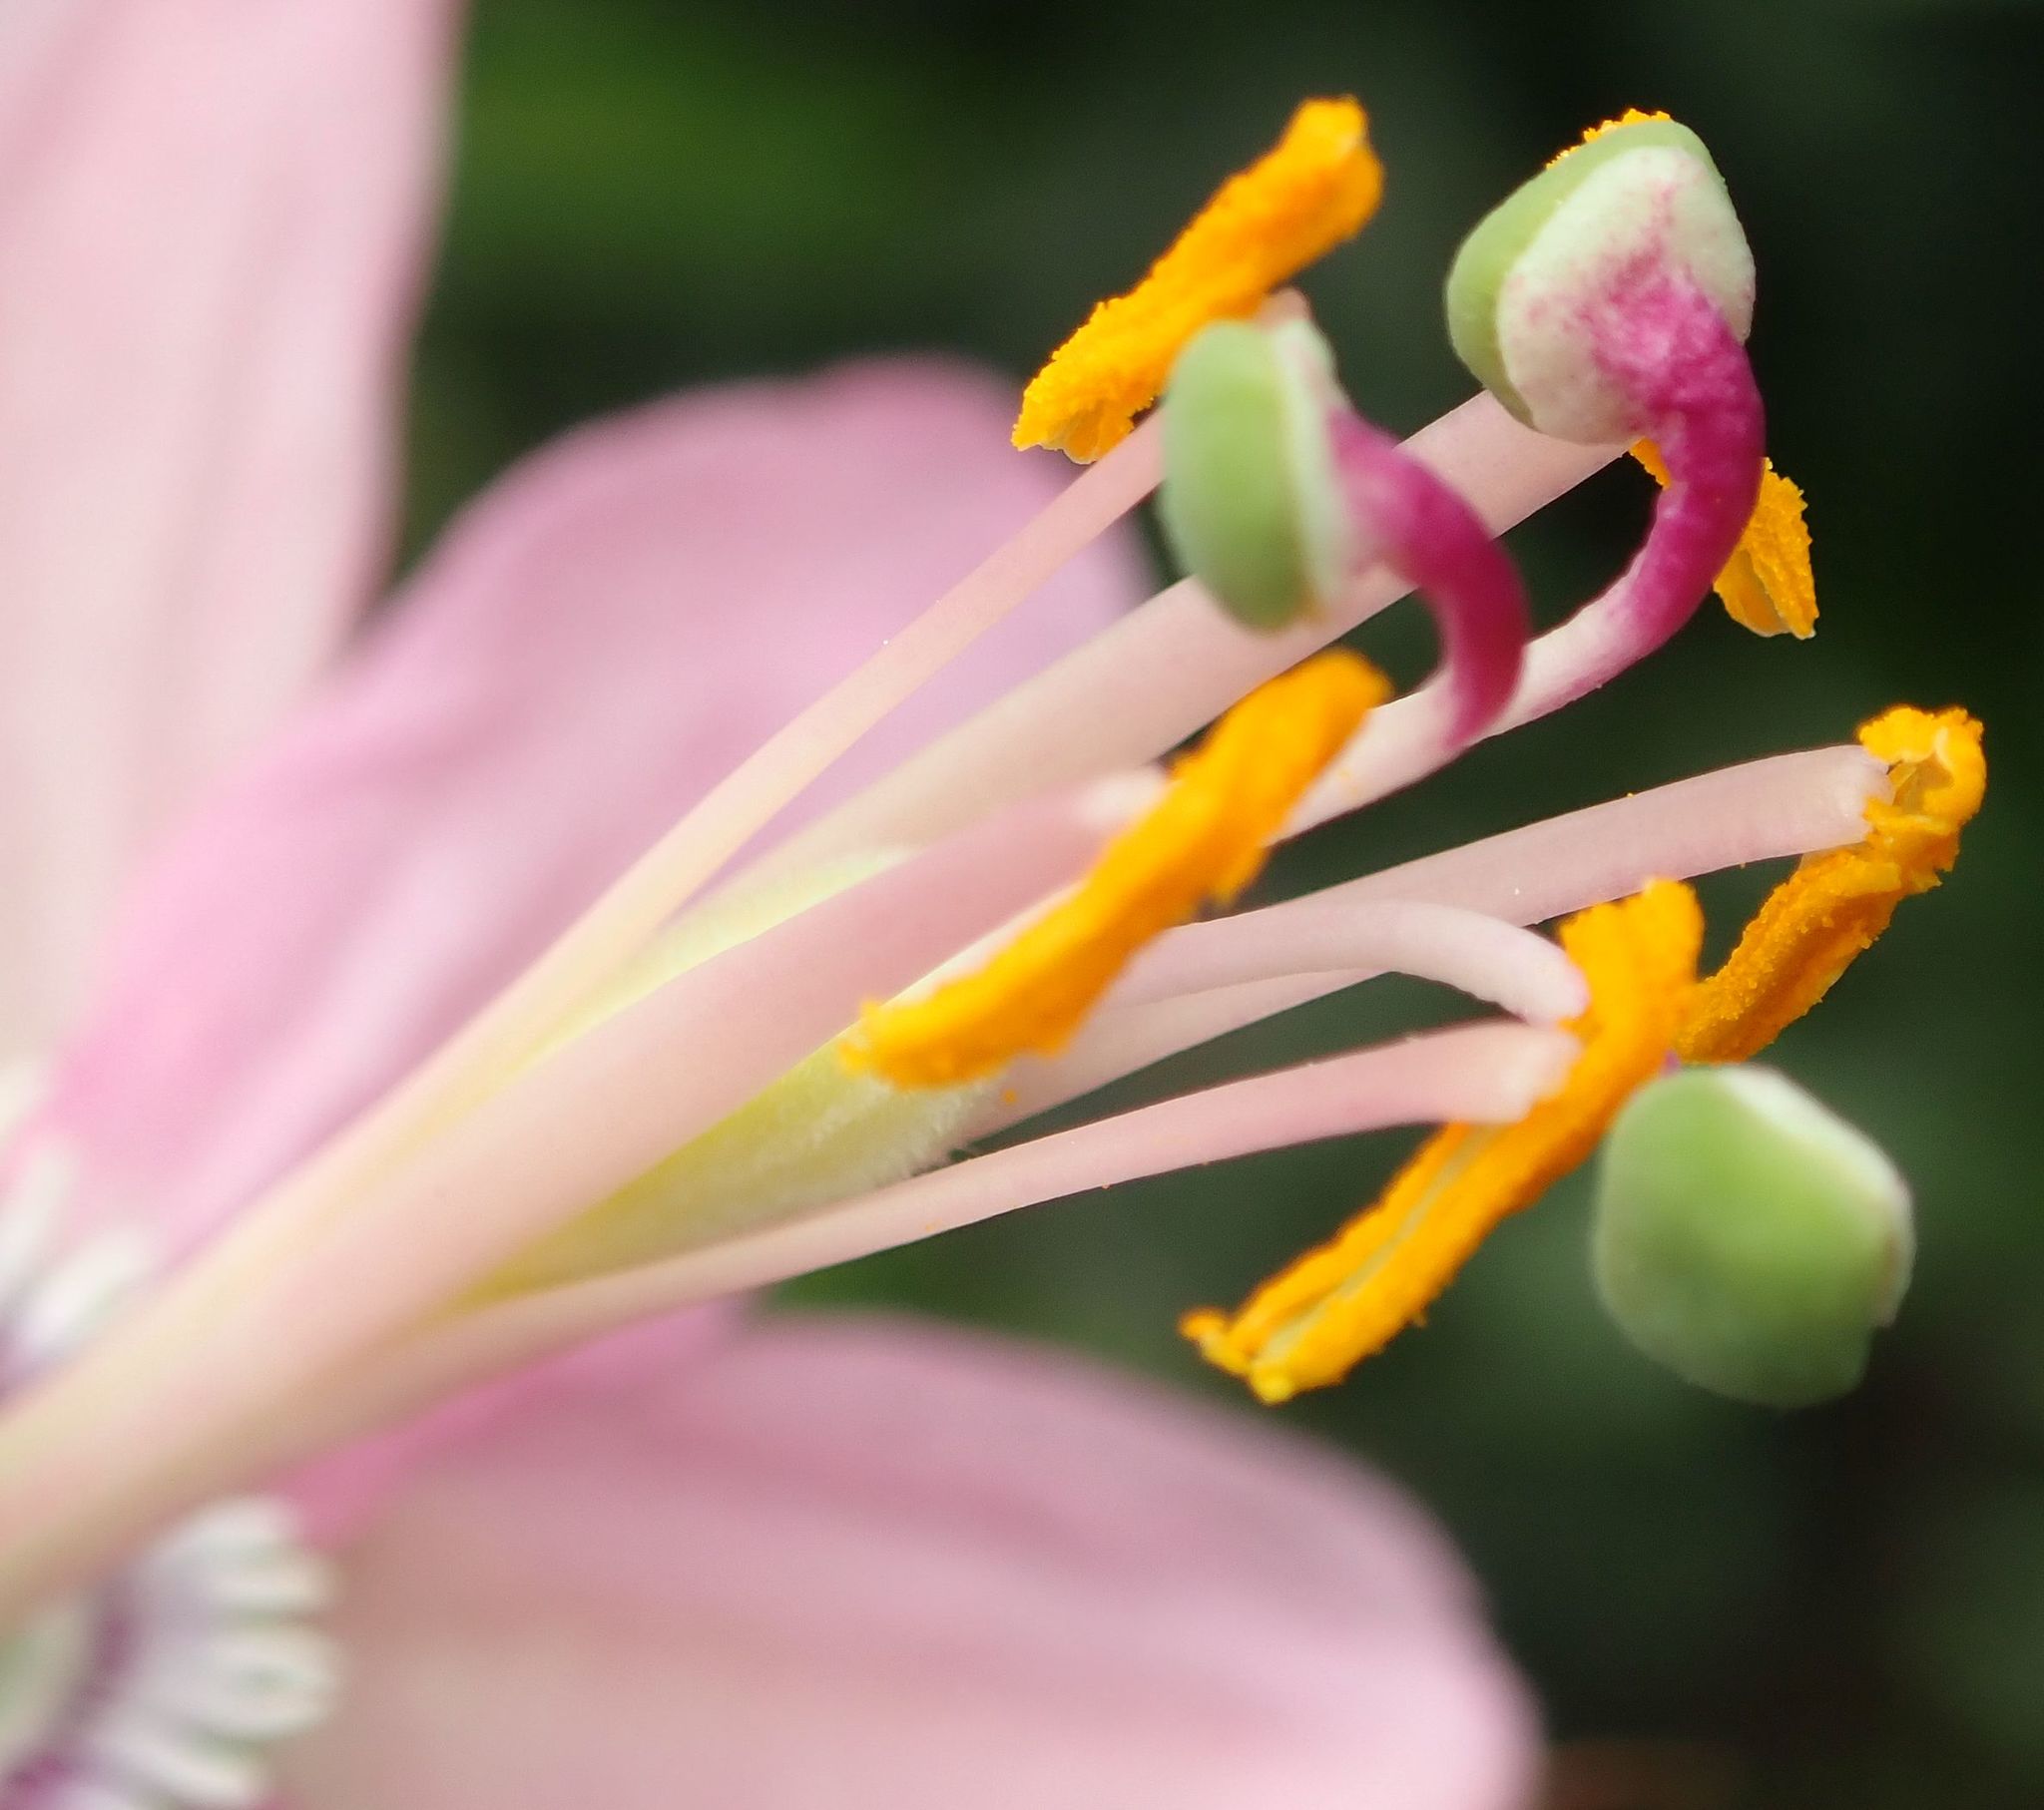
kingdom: Plantae
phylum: Tracheophyta
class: Magnoliopsida
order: Malpighiales
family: Passifloraceae
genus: Passiflora
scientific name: Passiflora tripartita
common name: Banana poka
